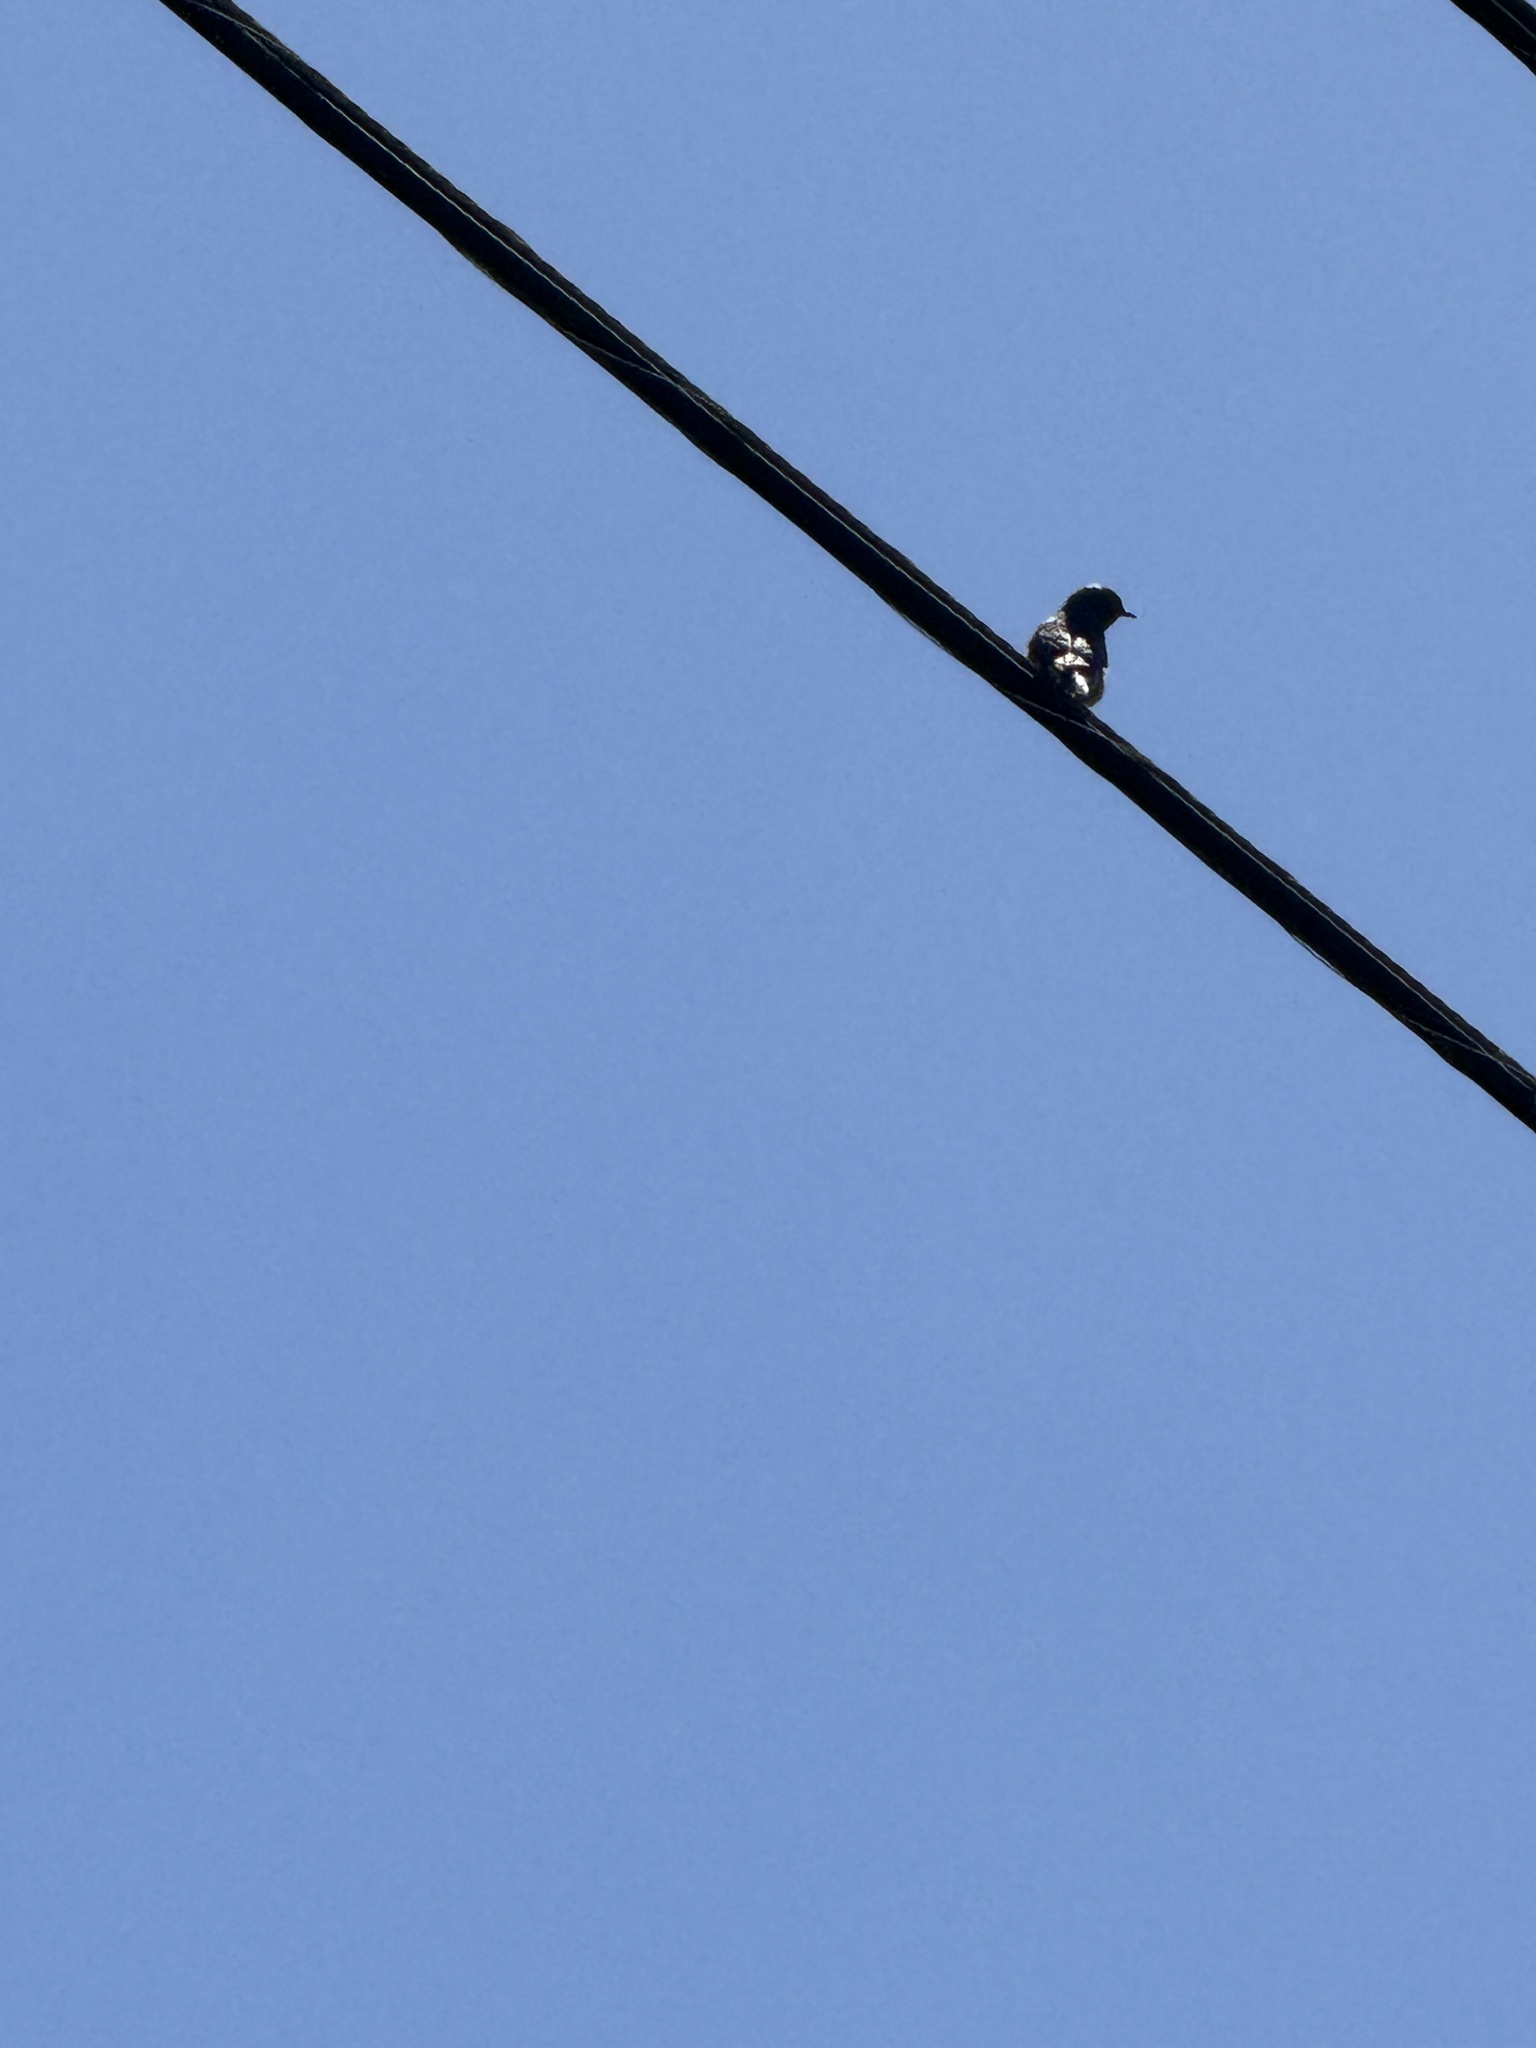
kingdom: Animalia
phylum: Chordata
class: Aves
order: Passeriformes
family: Turdidae
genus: Sialia
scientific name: Sialia mexicana
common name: Western bluebird
